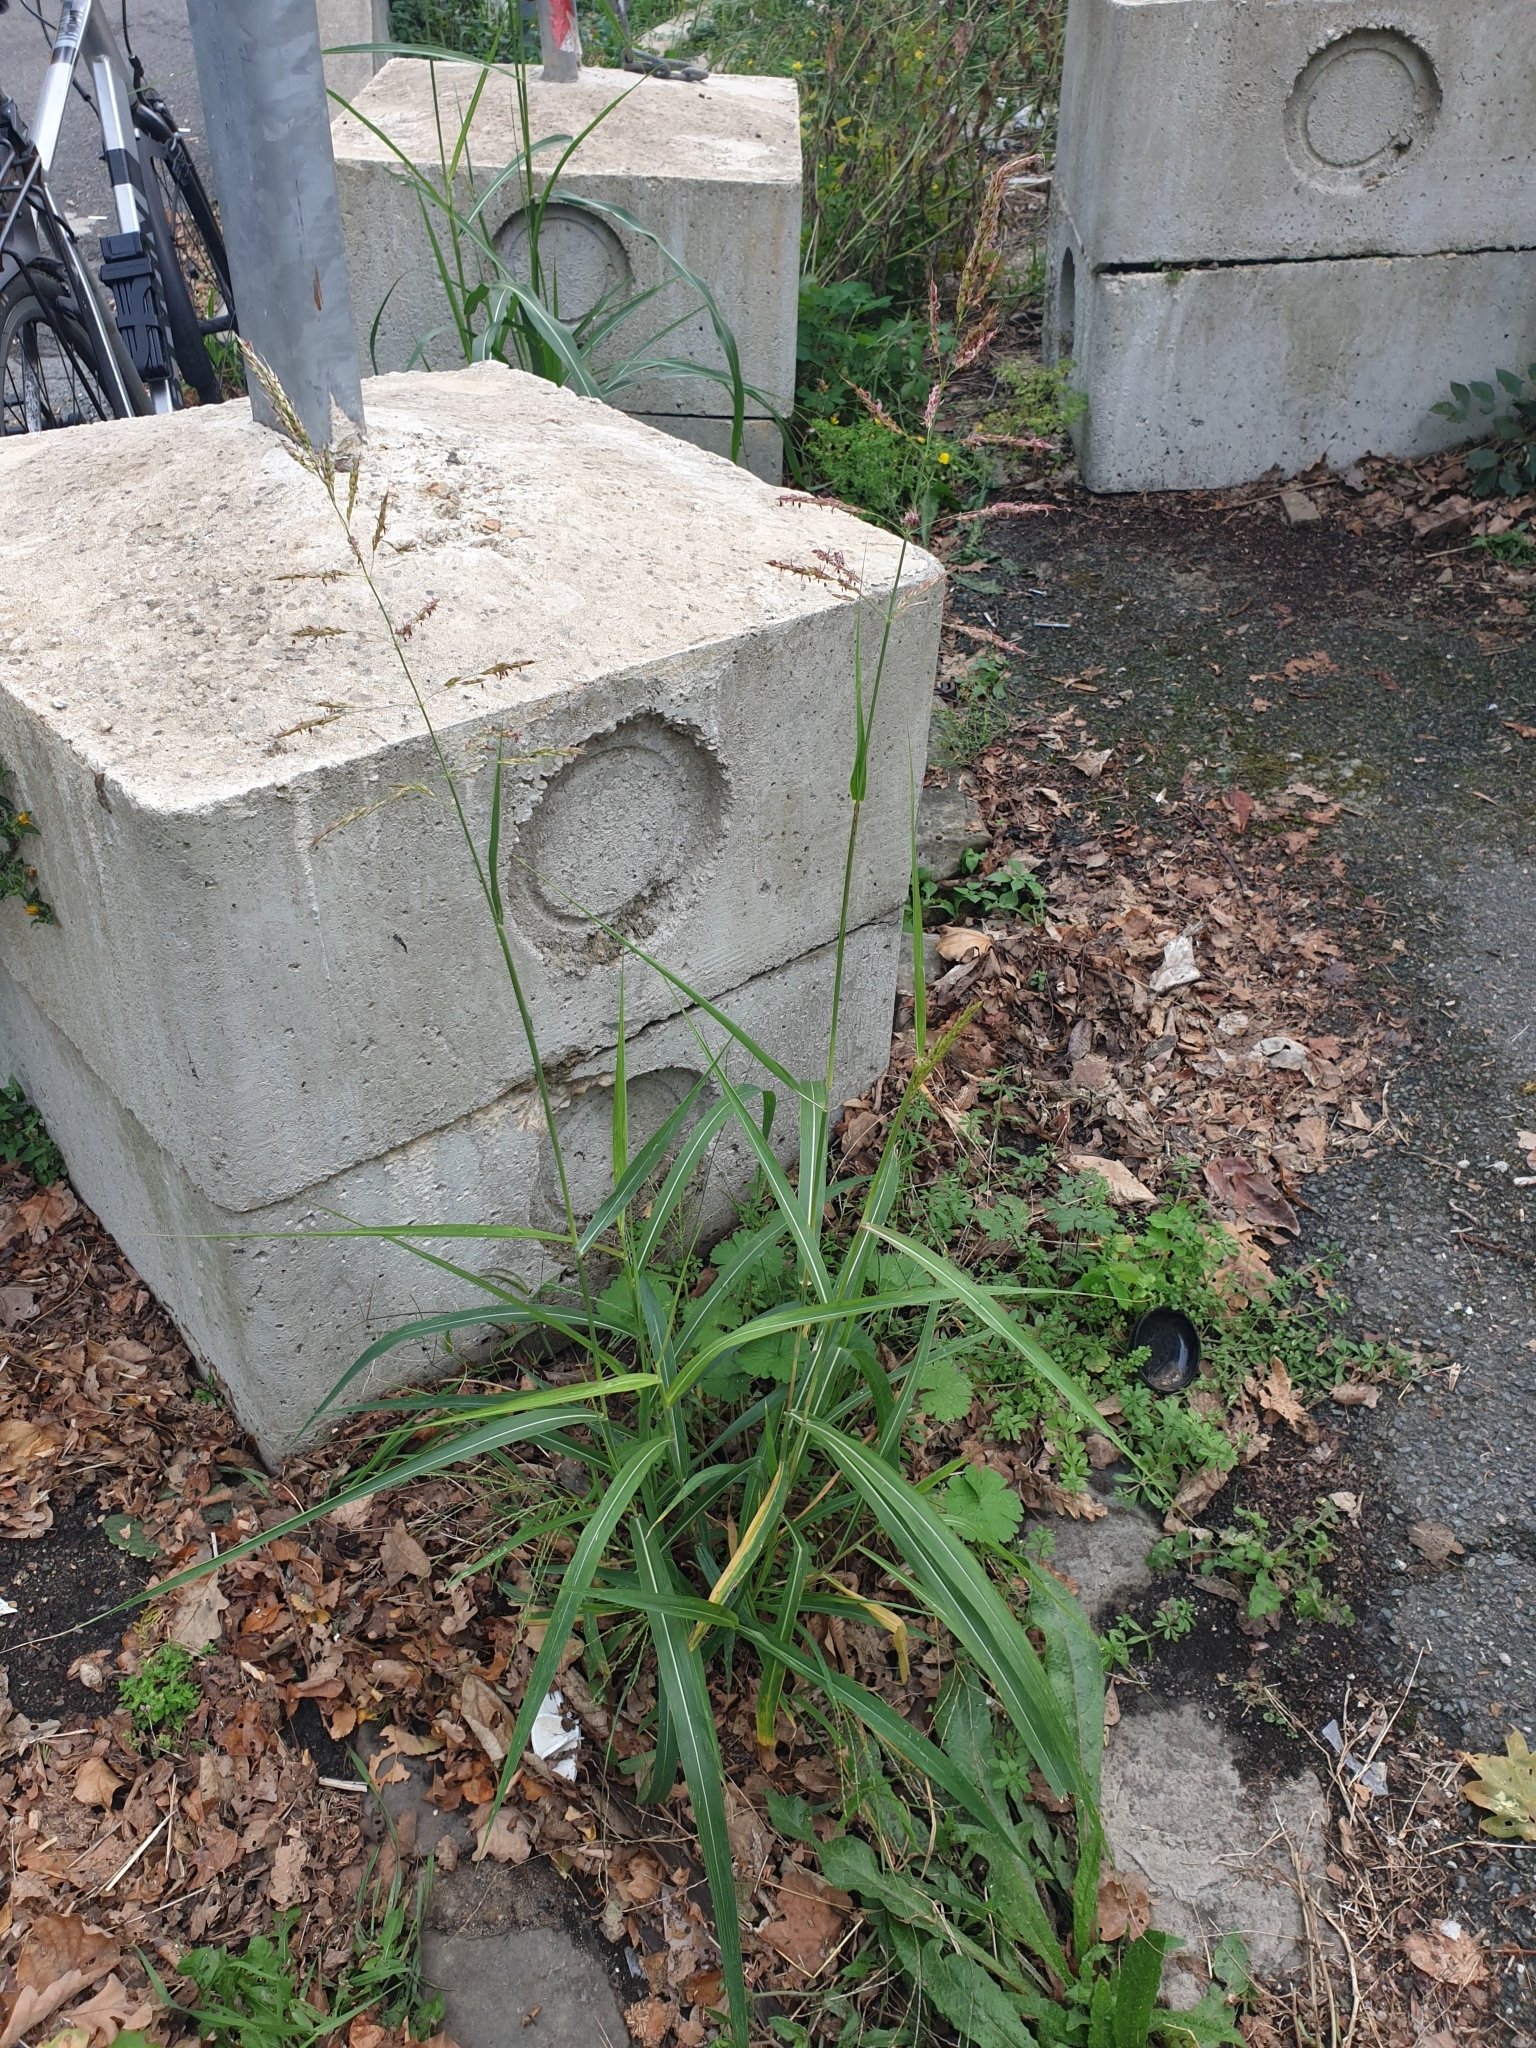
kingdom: Plantae
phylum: Tracheophyta
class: Liliopsida
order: Poales
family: Poaceae
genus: Sorghum
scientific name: Sorghum halepense
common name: Johnson-grass
